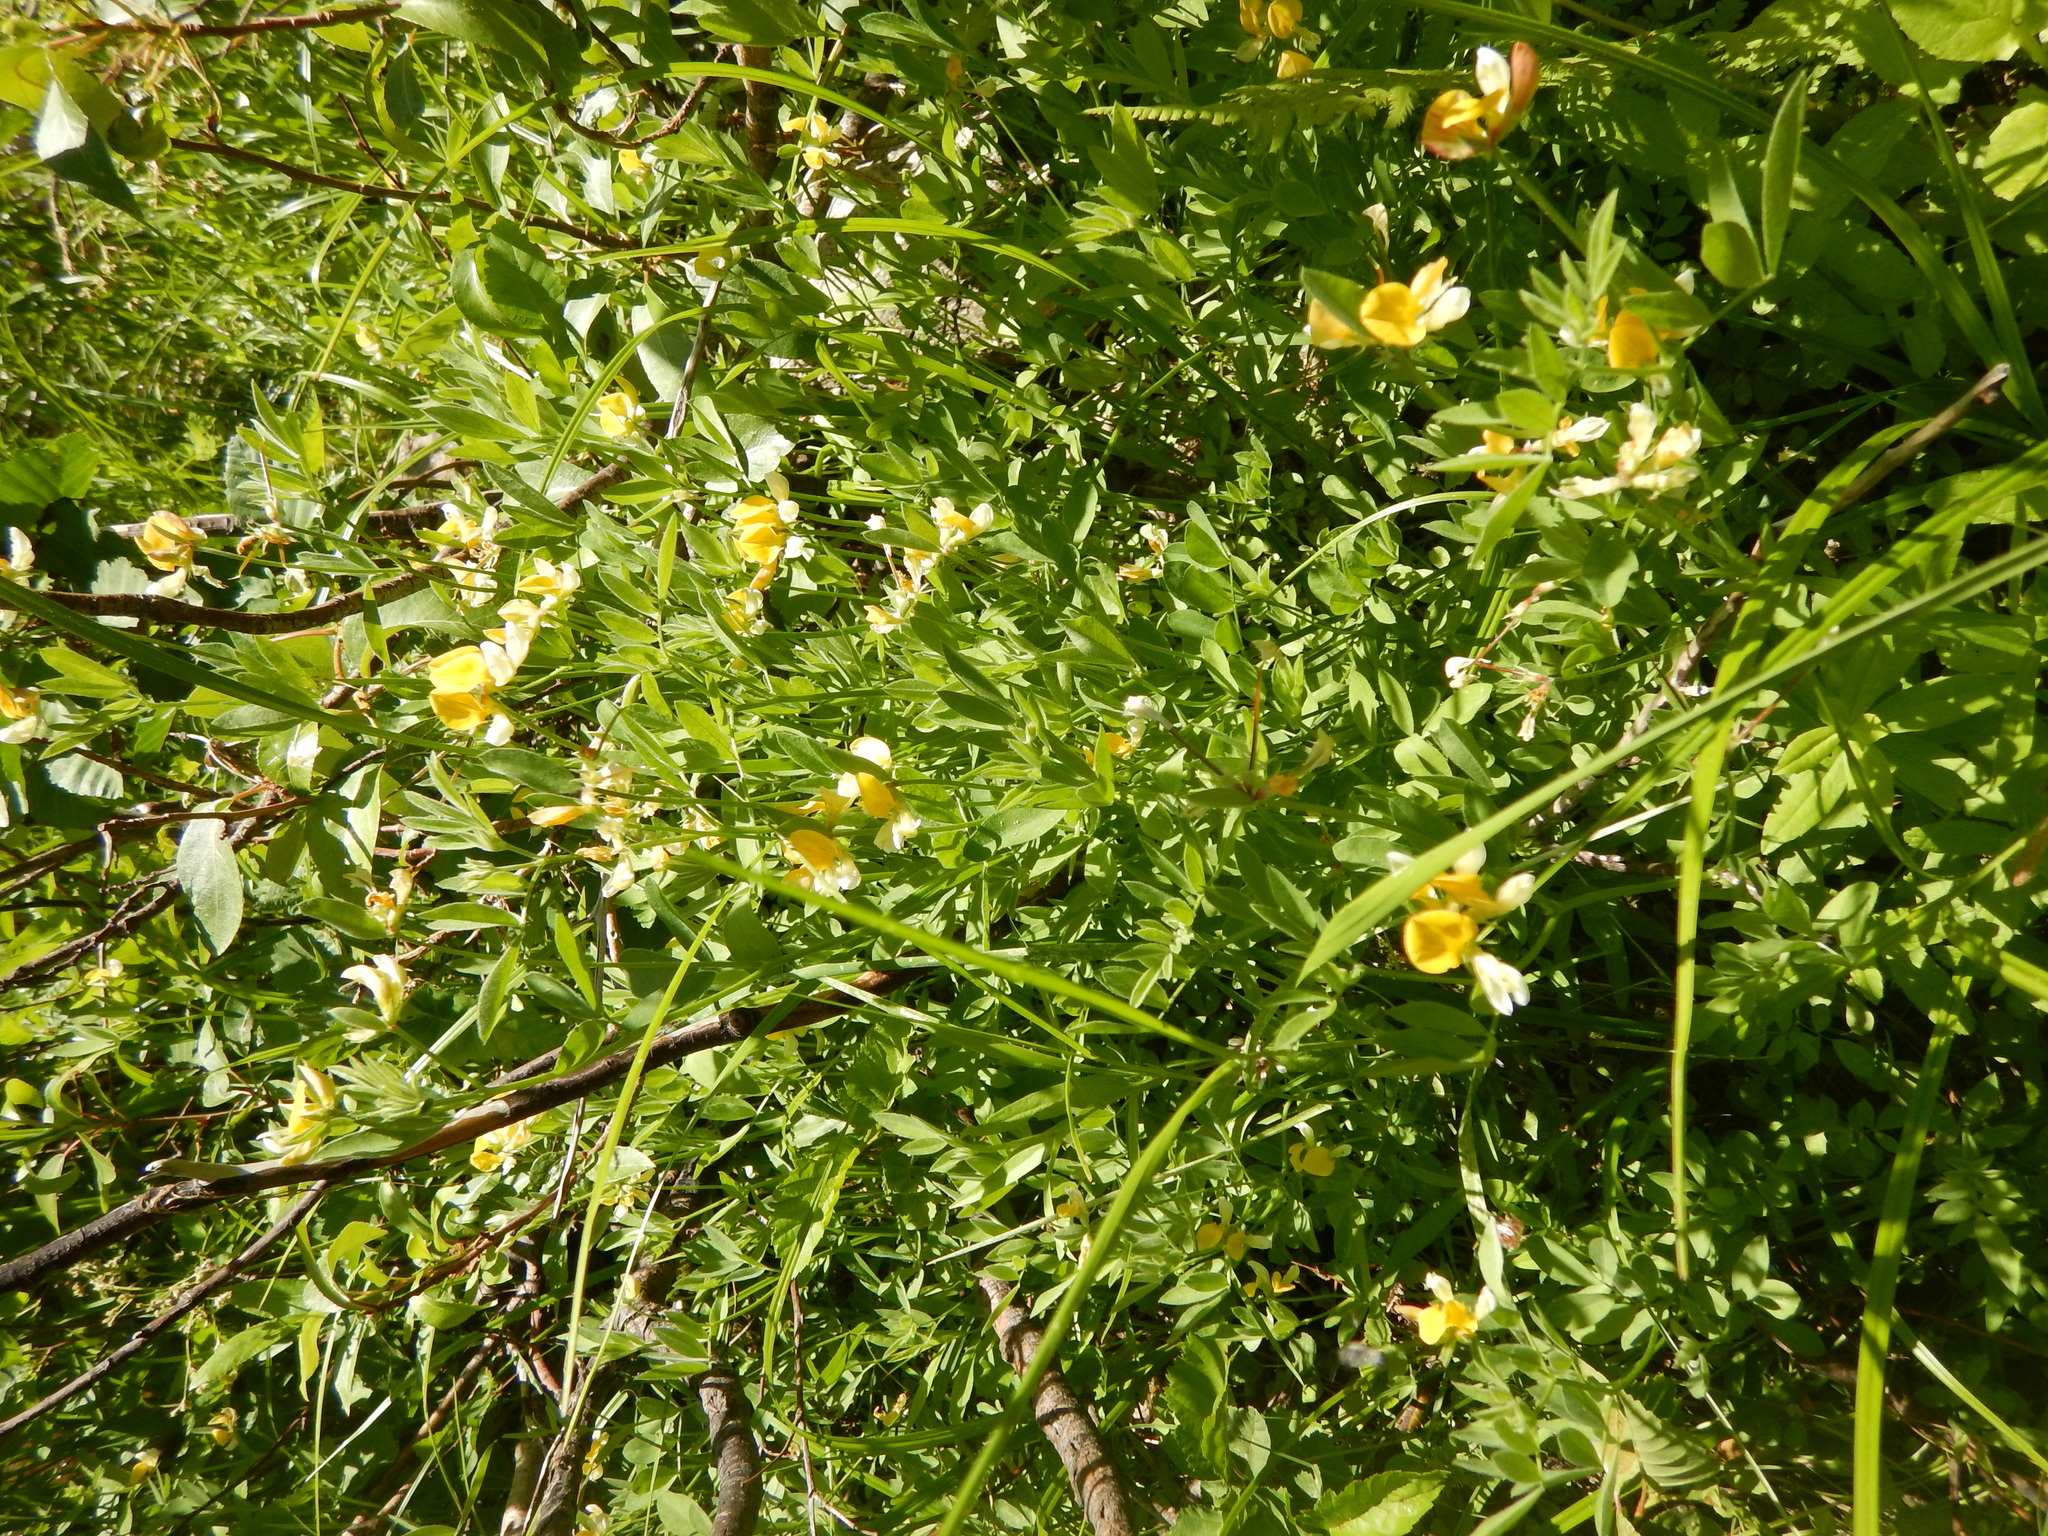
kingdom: Plantae
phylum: Tracheophyta
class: Magnoliopsida
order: Fabales
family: Fabaceae
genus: Hosackia
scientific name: Hosackia oblongifolia
